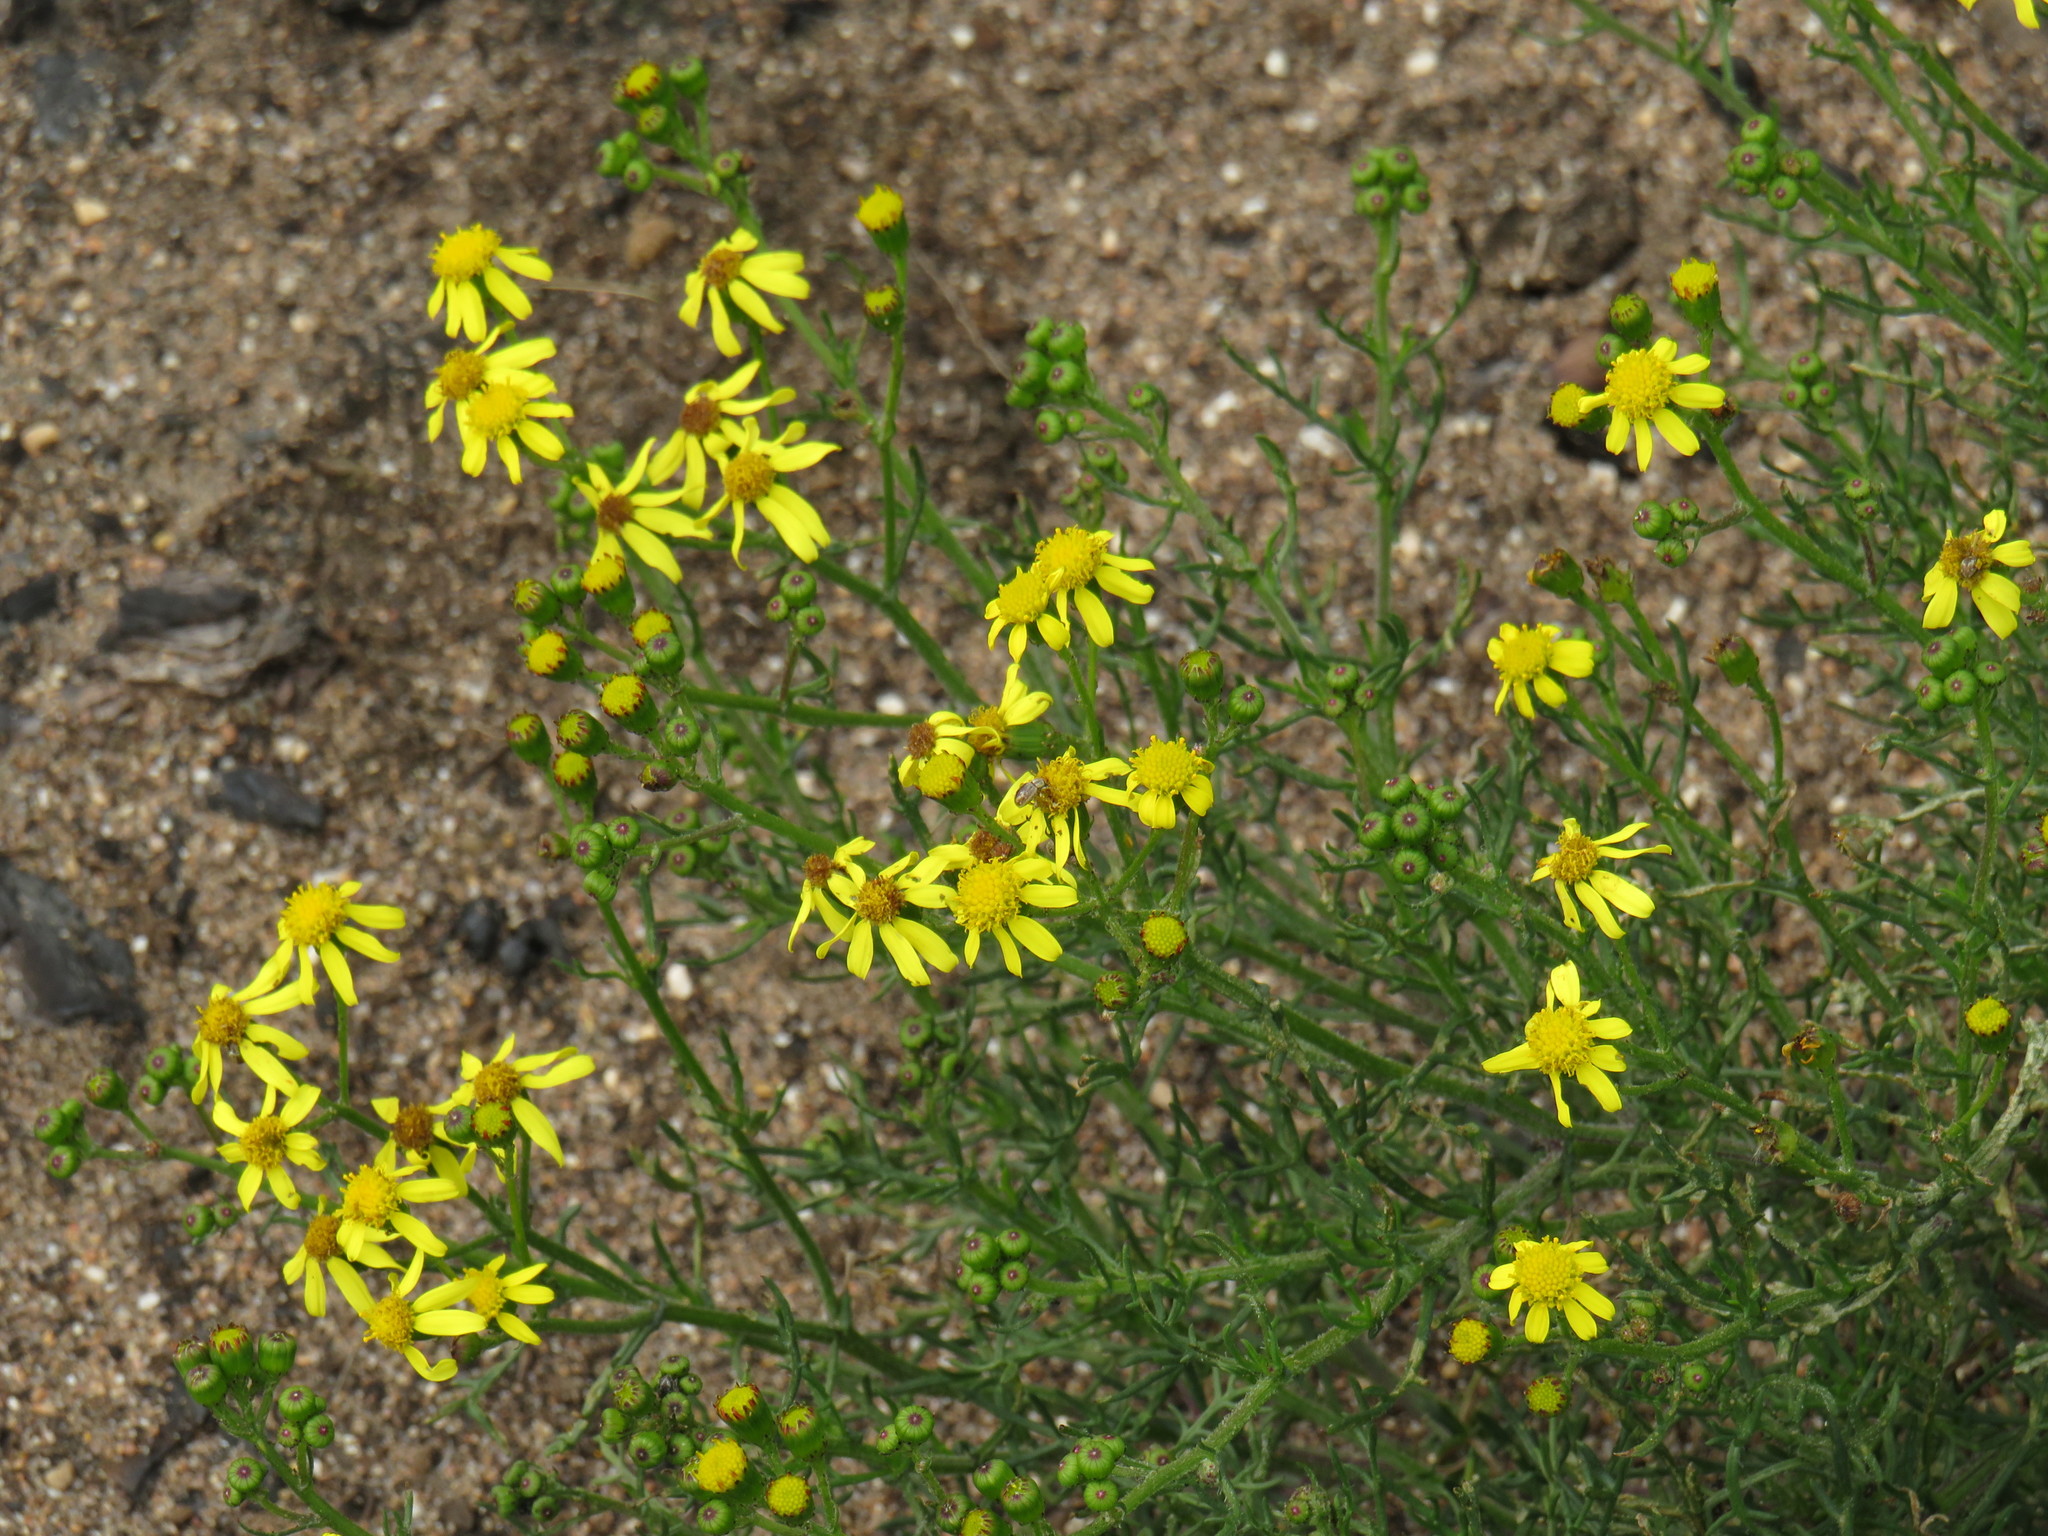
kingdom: Plantae
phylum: Tracheophyta
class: Magnoliopsida
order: Asterales
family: Asteraceae
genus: Senecio
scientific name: Senecio burchellii
